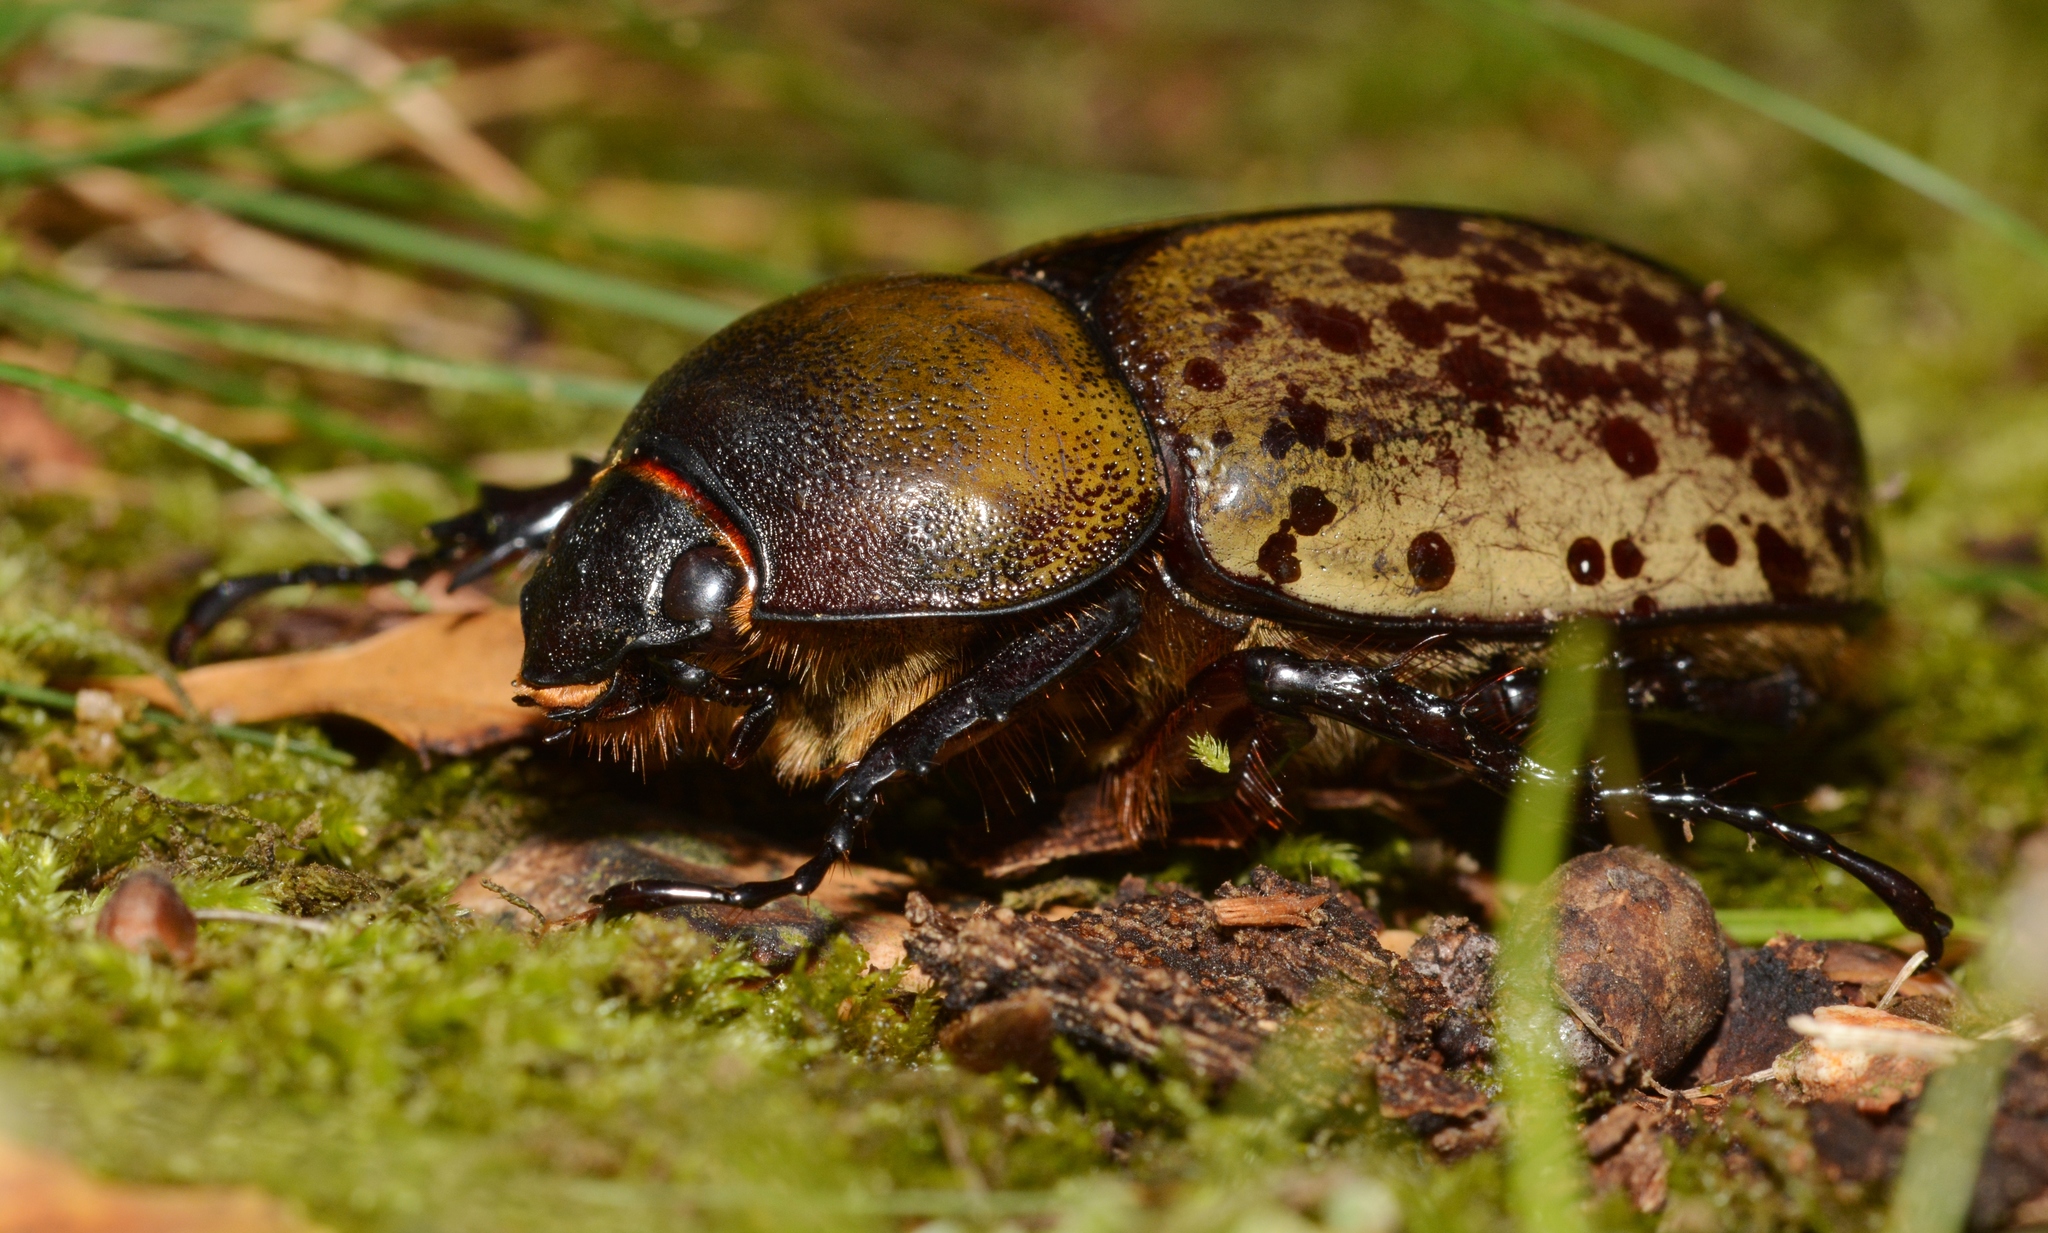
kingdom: Animalia
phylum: Arthropoda
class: Insecta
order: Coleoptera
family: Scarabaeidae
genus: Dynastes
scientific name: Dynastes tityus
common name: Eastern hercules beetle
